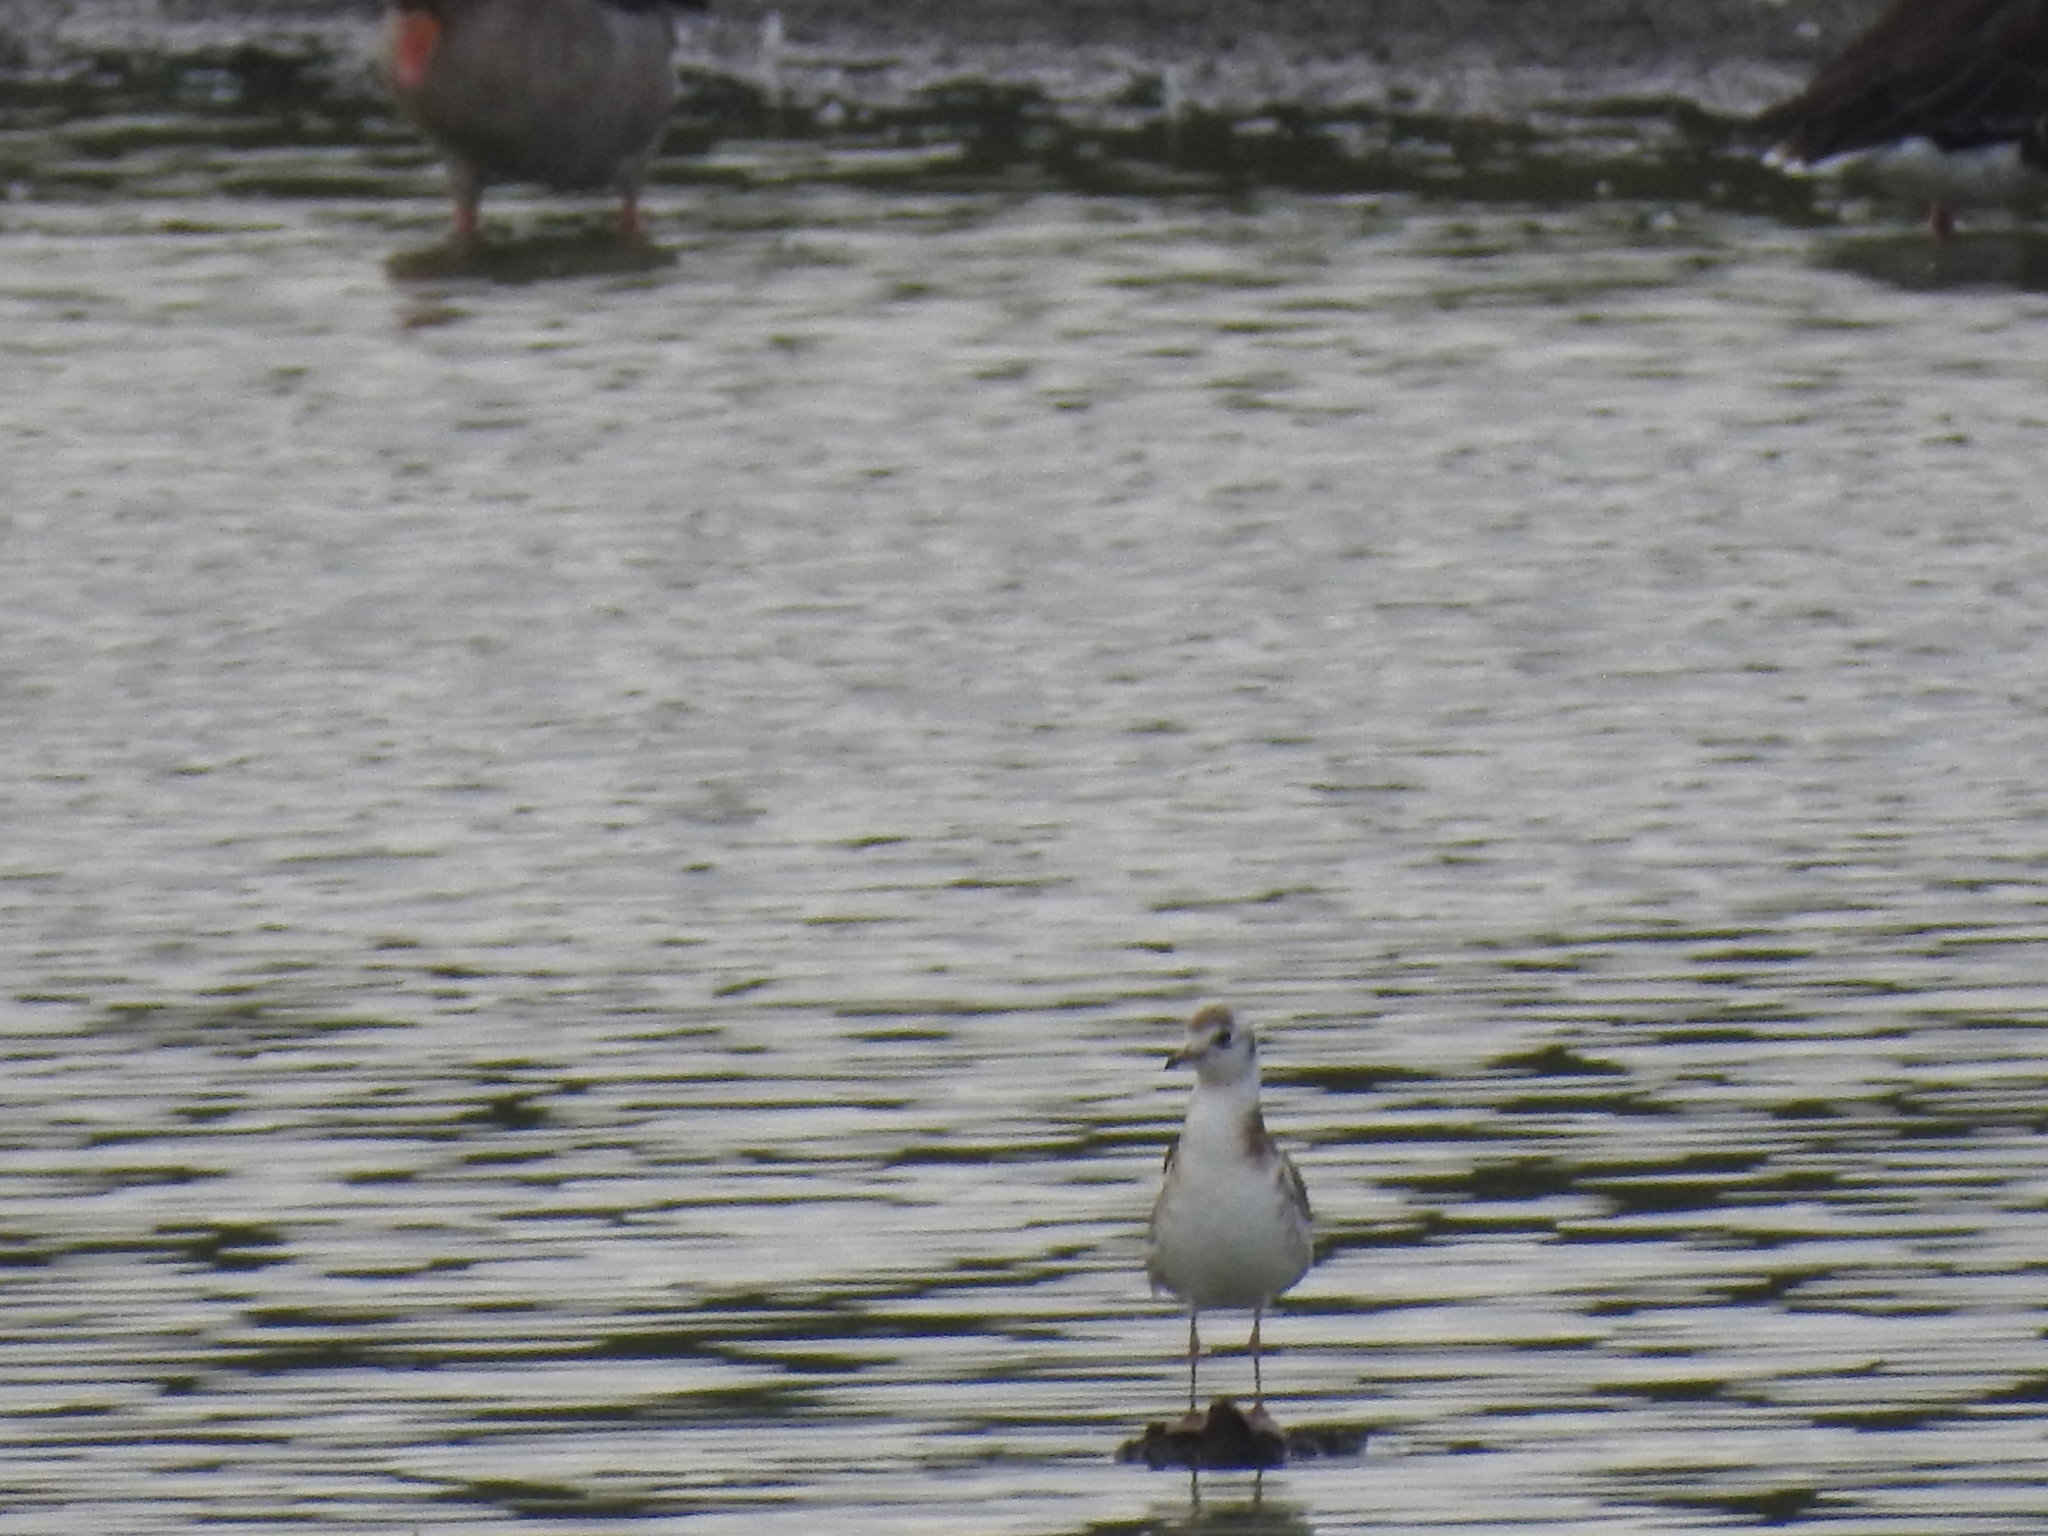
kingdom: Animalia
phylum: Chordata
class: Aves
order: Charadriiformes
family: Laridae
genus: Chroicocephalus
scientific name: Chroicocephalus ridibundus
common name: Black-headed gull
